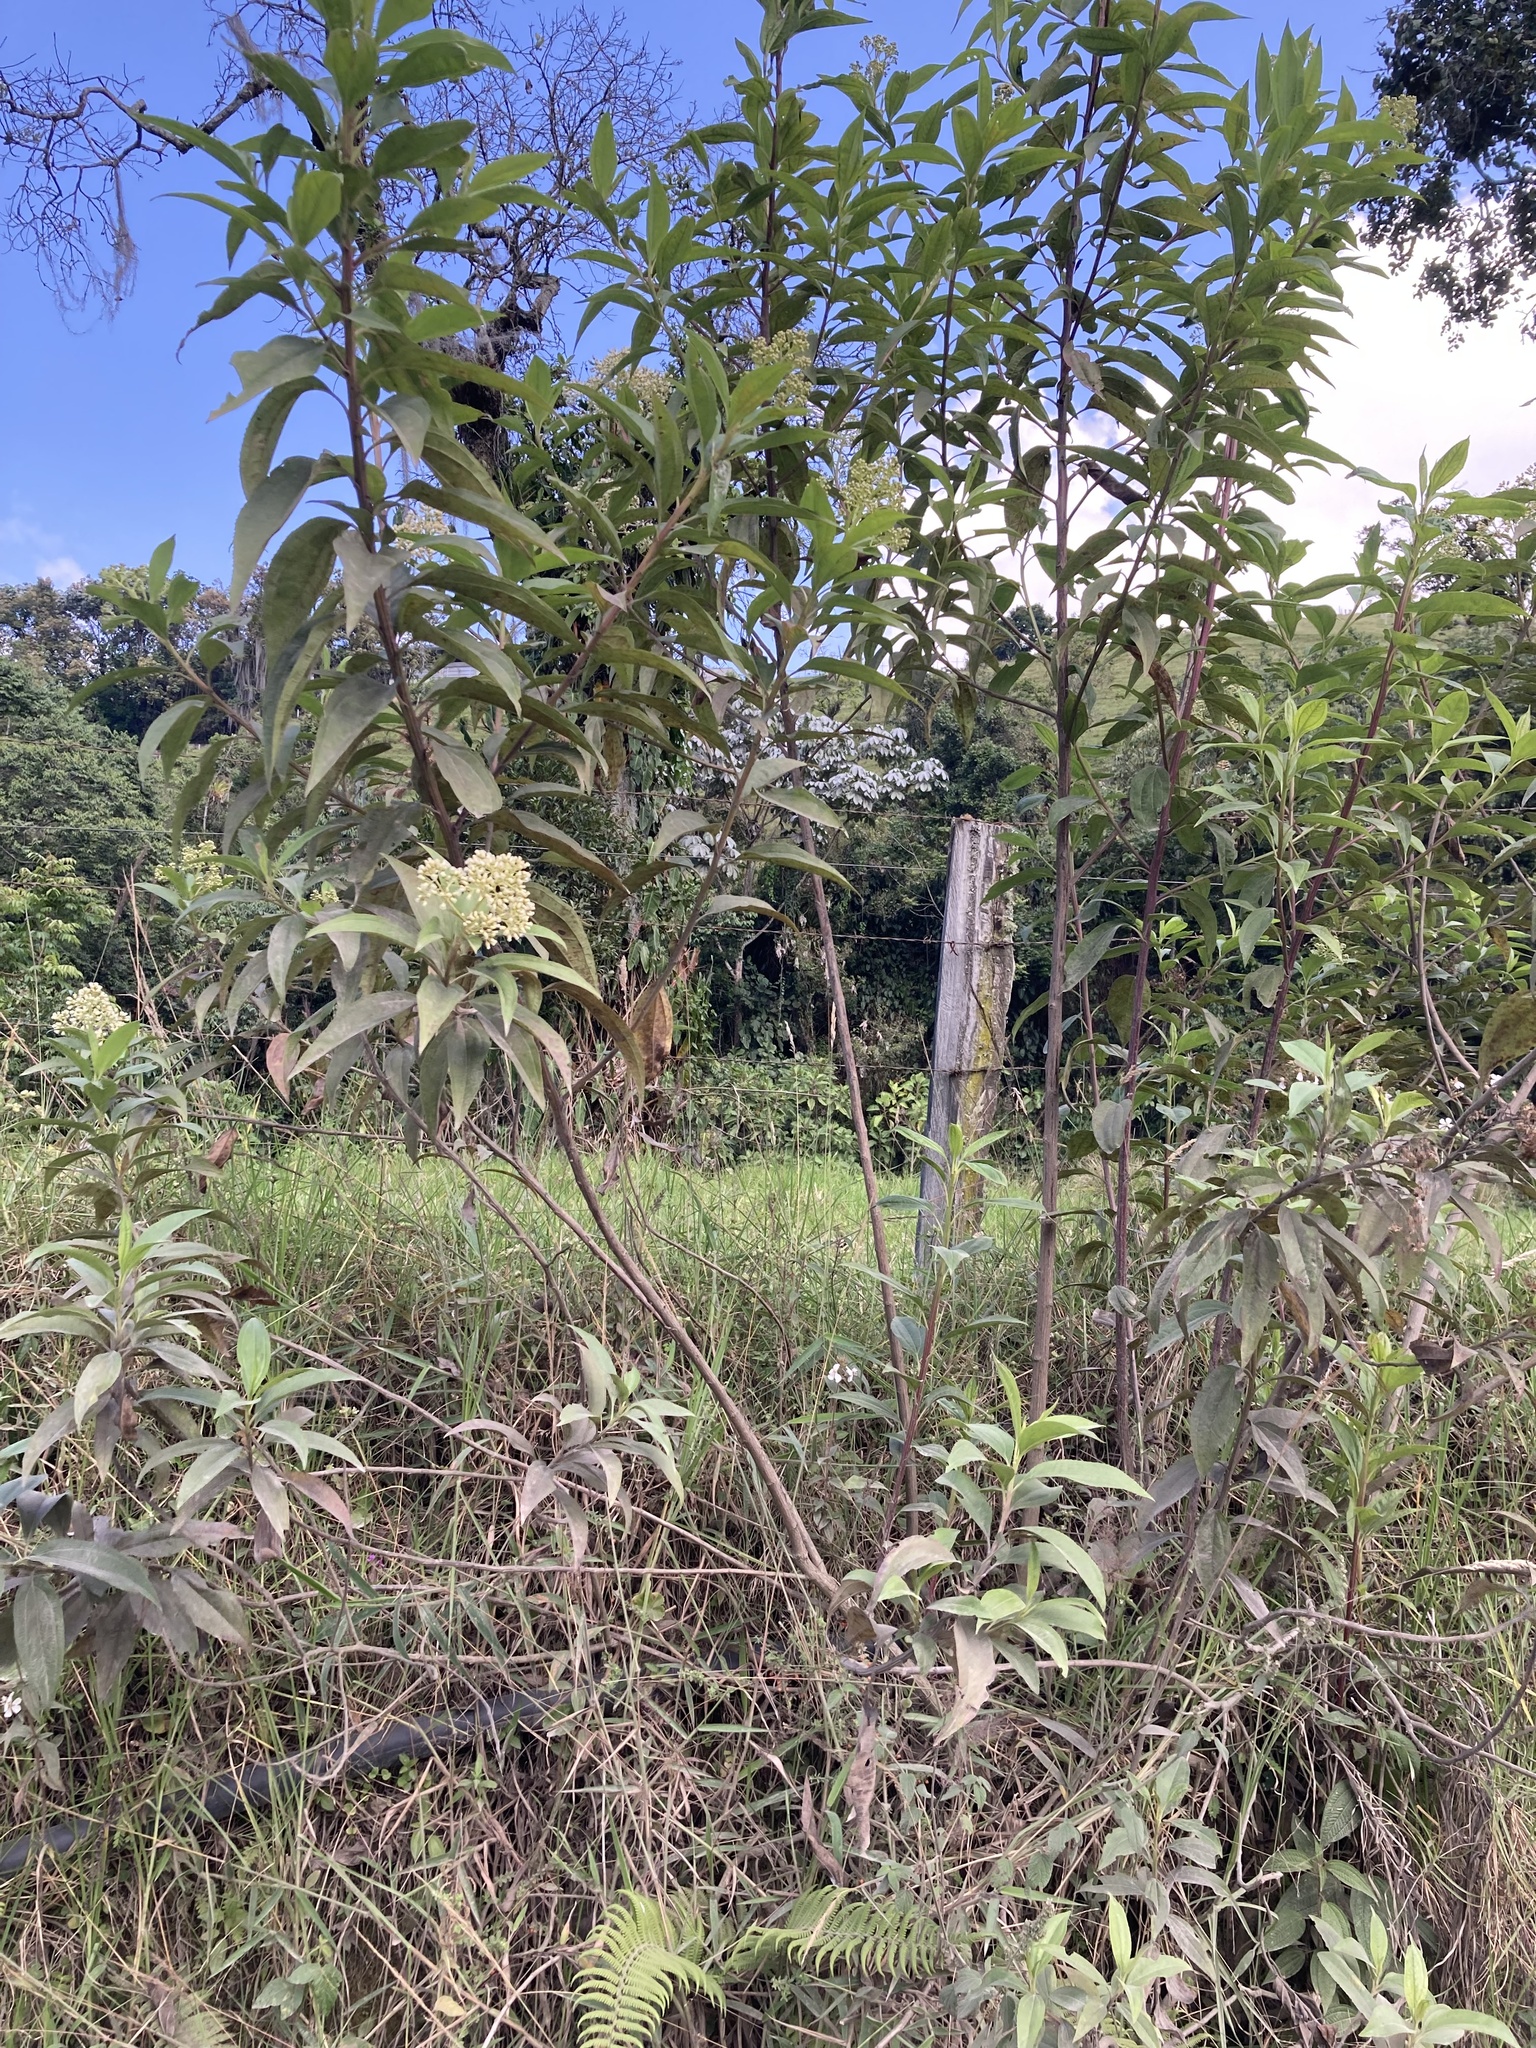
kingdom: Plantae
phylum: Tracheophyta
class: Magnoliopsida
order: Asterales
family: Asteraceae
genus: Baccharis
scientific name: Baccharis latifolia
